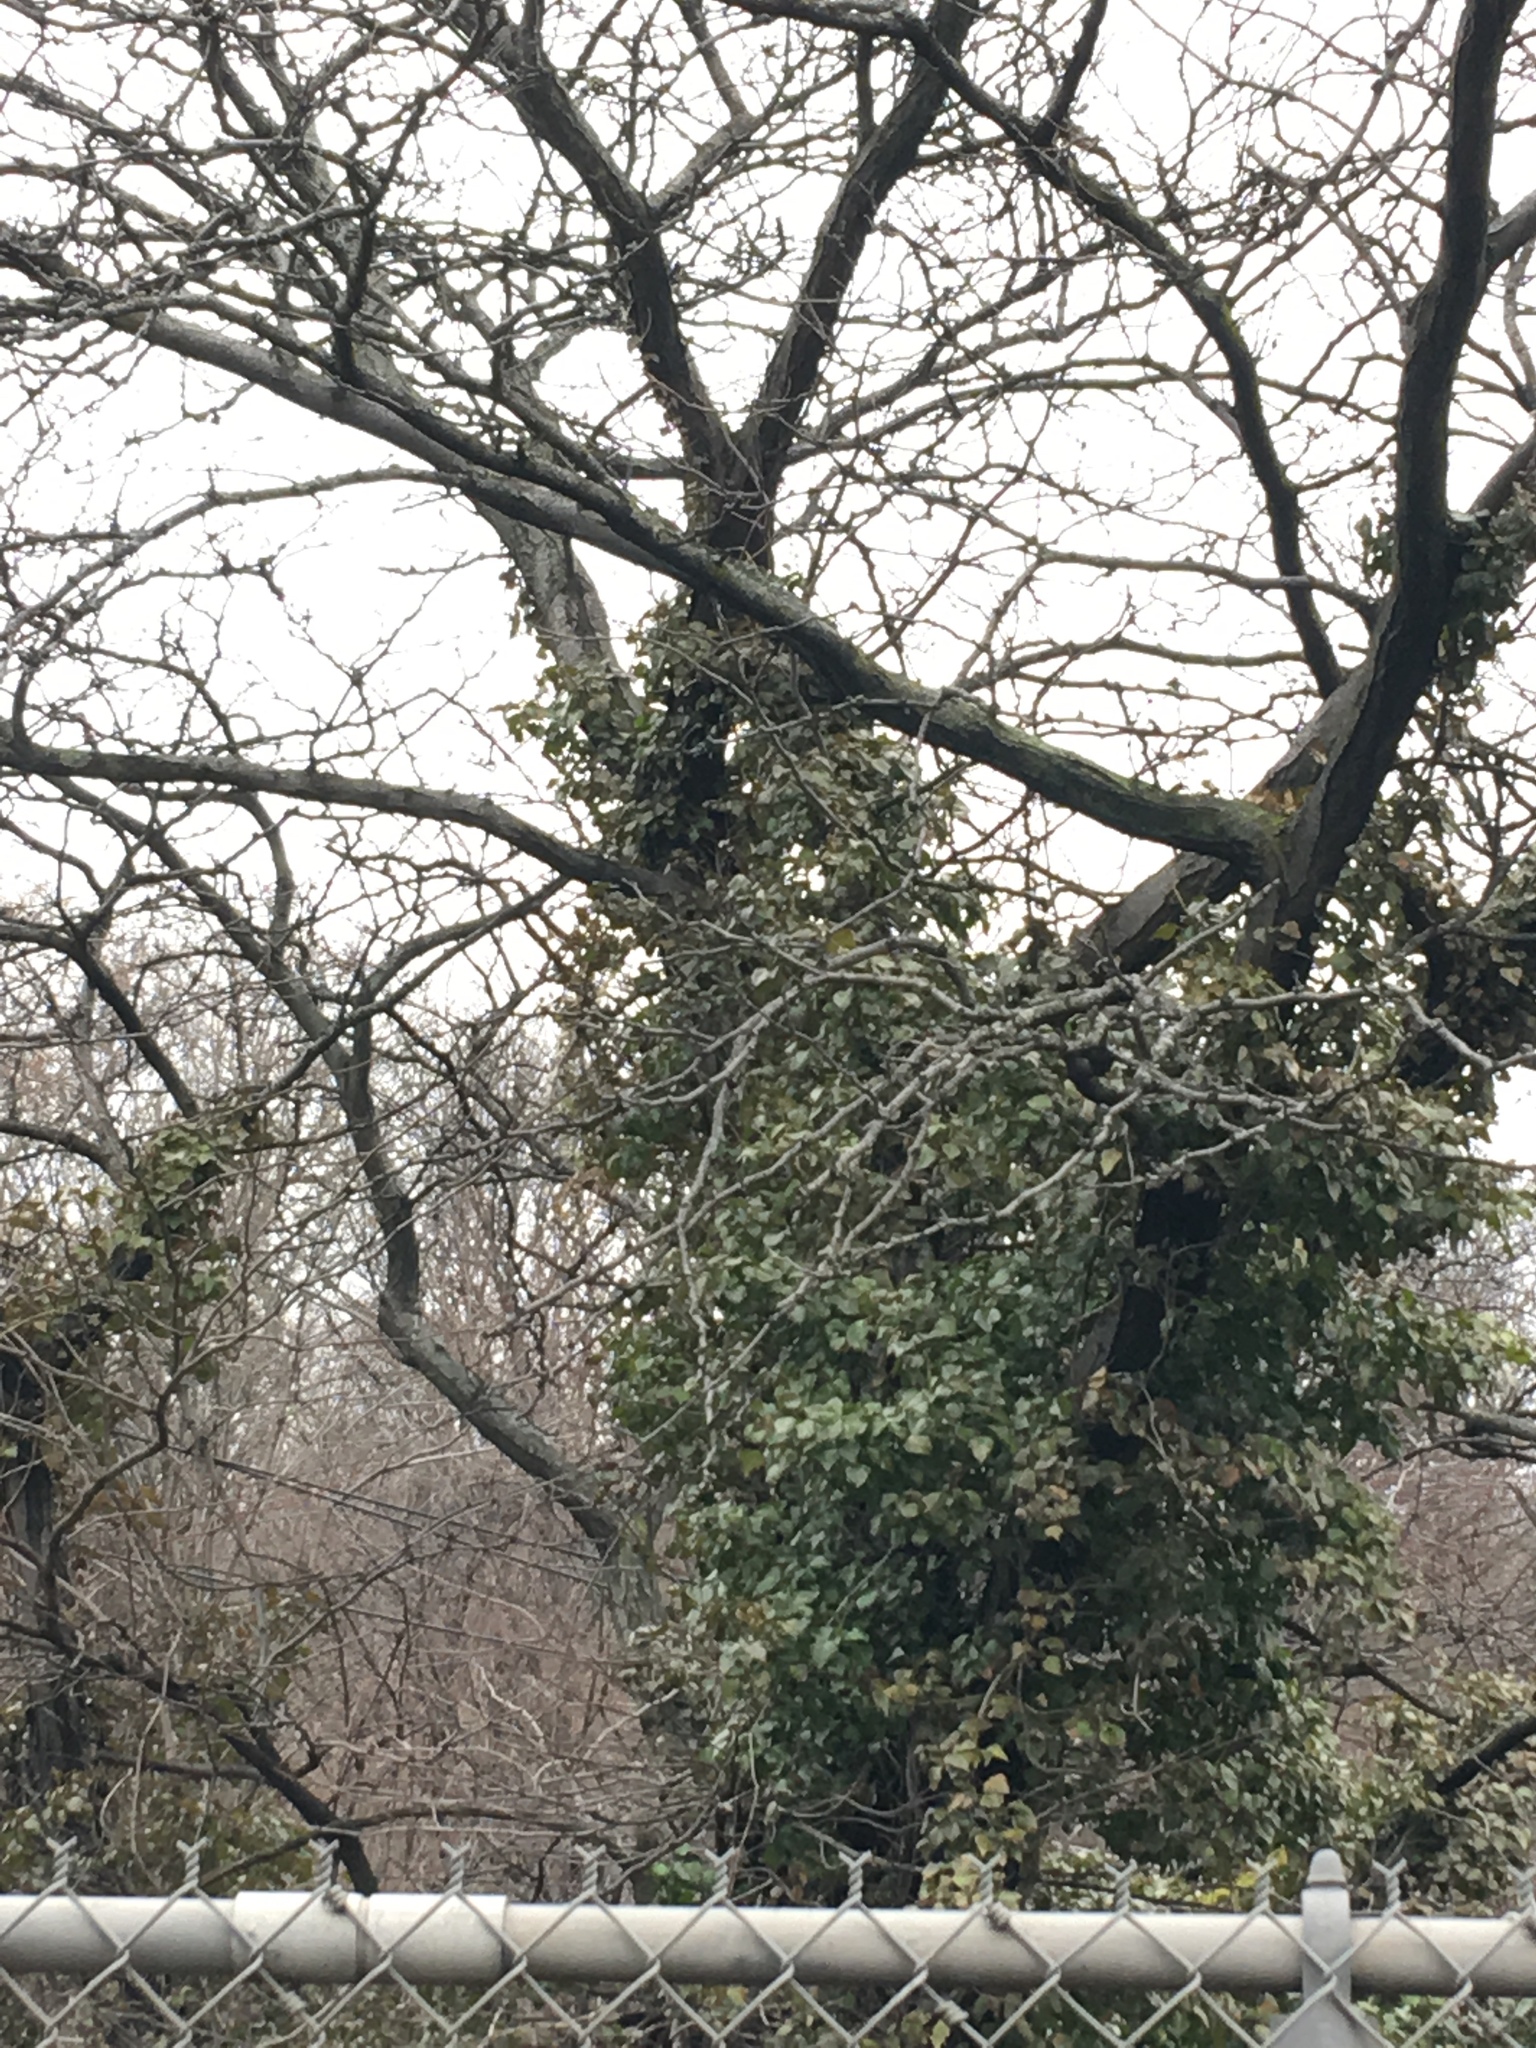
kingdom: Plantae
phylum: Tracheophyta
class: Magnoliopsida
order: Apiales
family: Araliaceae
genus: Hedera
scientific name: Hedera helix
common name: Ivy
